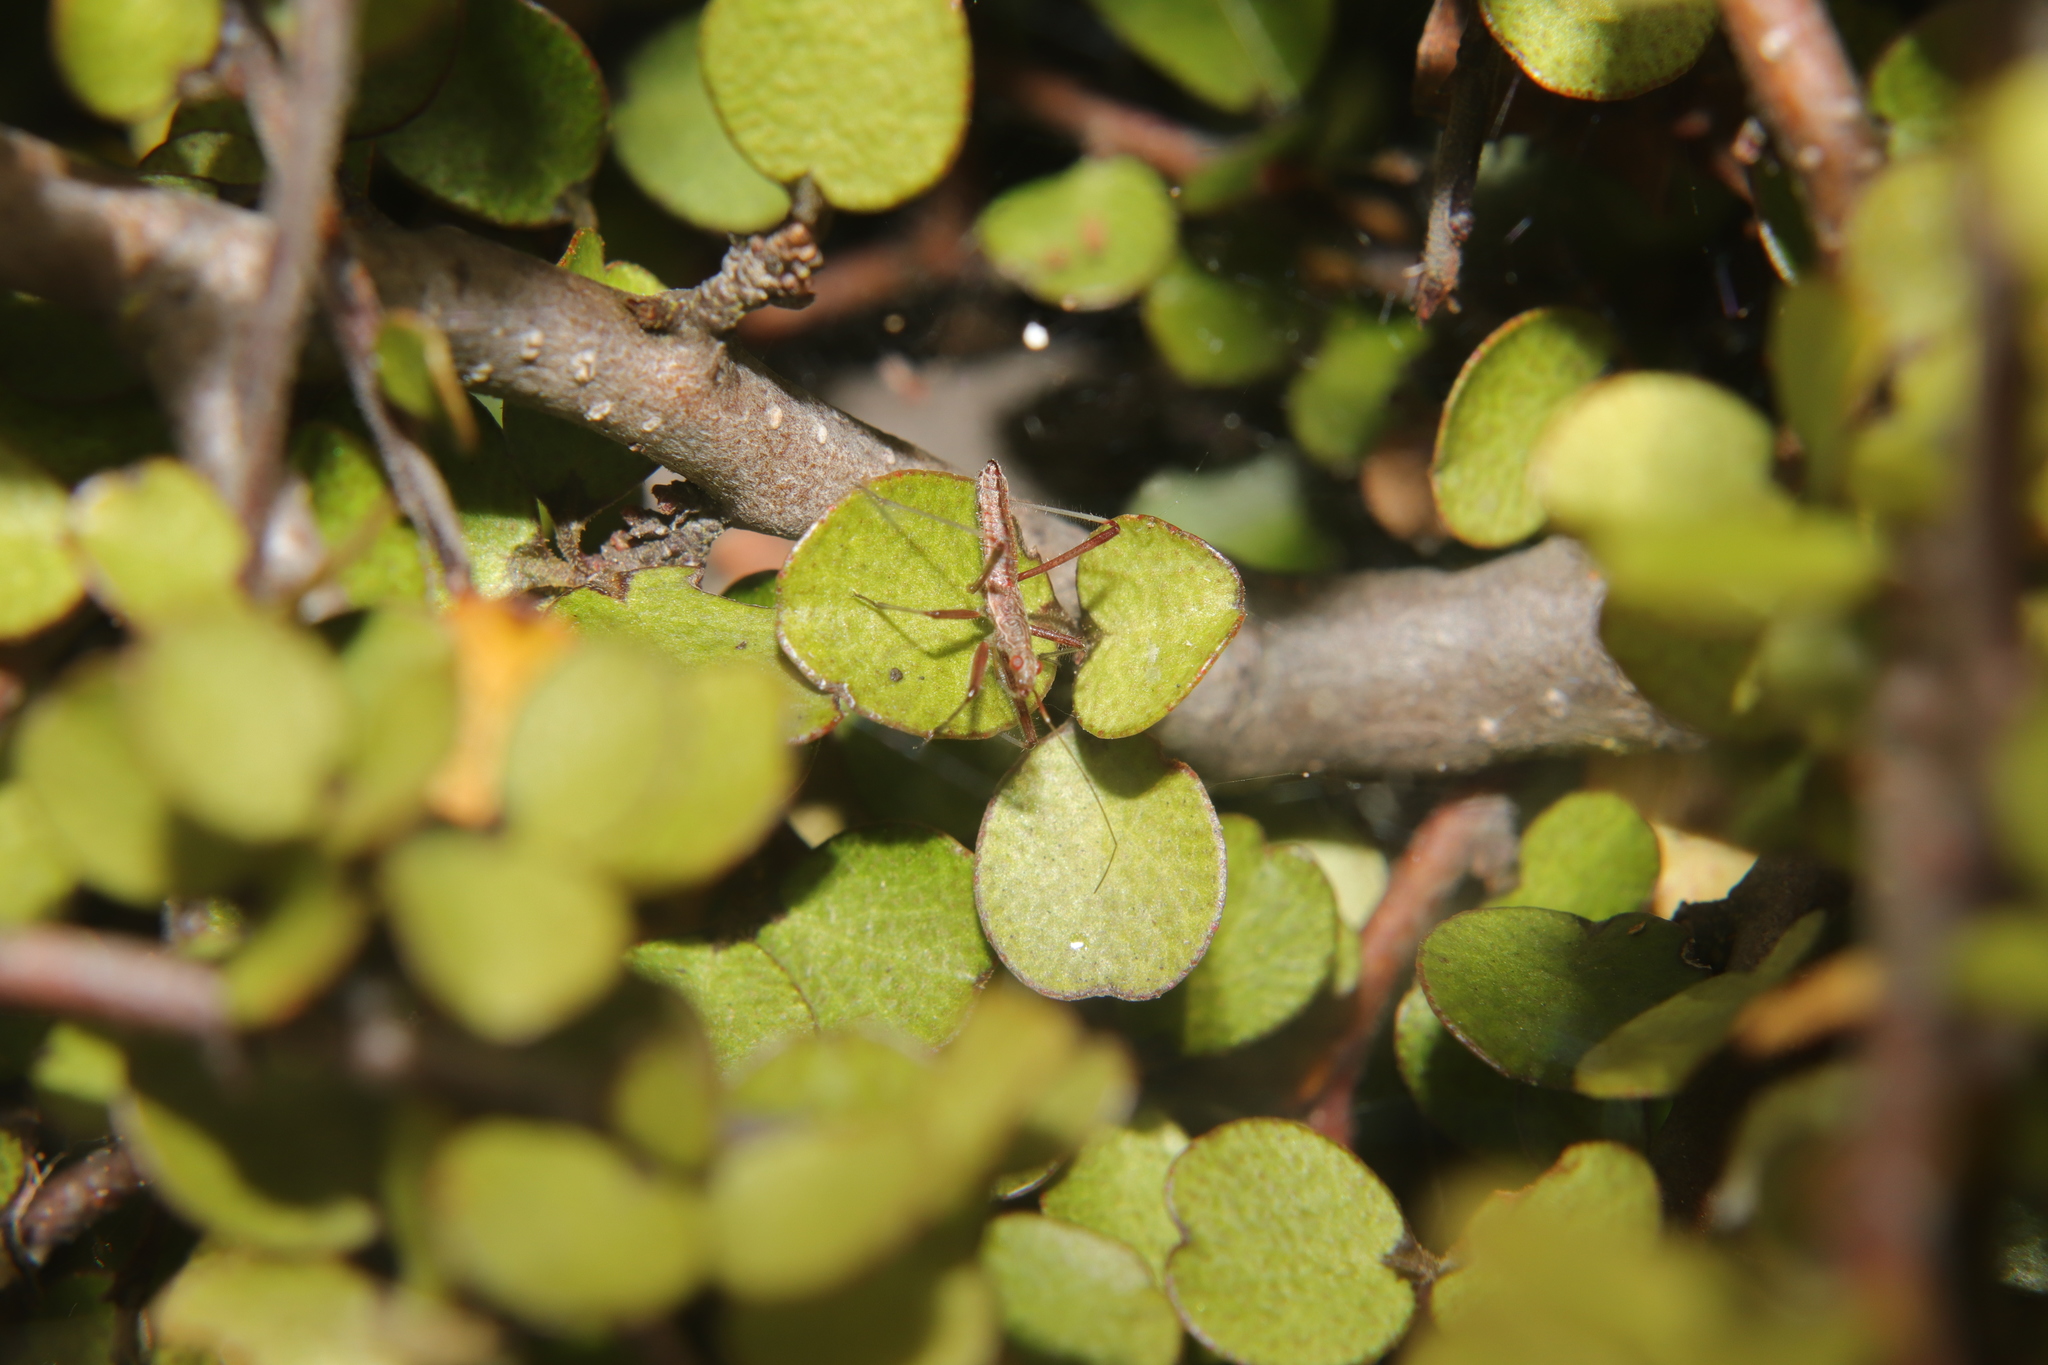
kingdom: Animalia
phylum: Arthropoda
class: Insecta
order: Hemiptera
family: Nabidae
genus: Nabis
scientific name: Nabis
